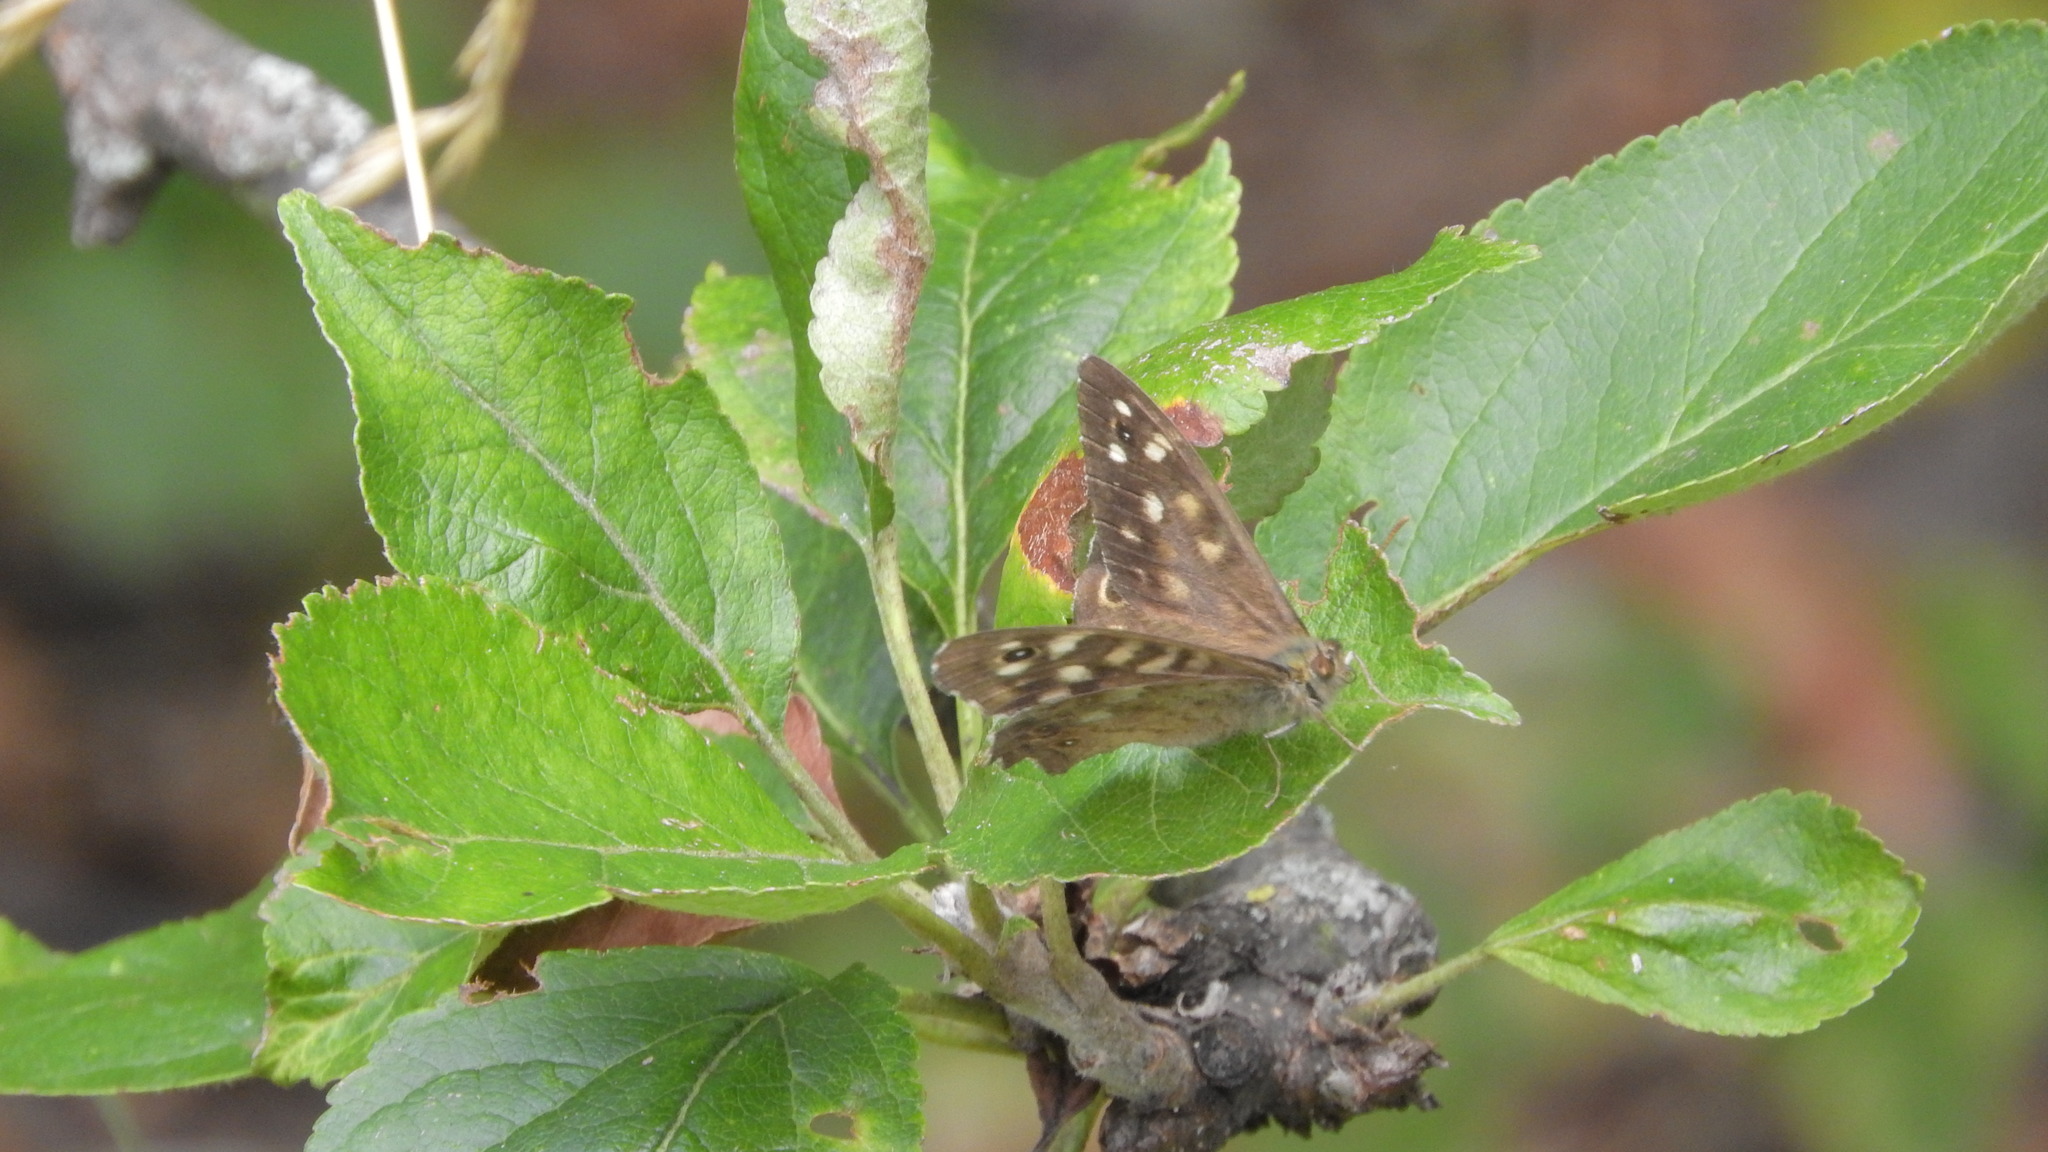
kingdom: Animalia
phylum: Arthropoda
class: Insecta
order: Lepidoptera
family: Nymphalidae
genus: Pararge
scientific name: Pararge aegeria
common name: Speckled wood
